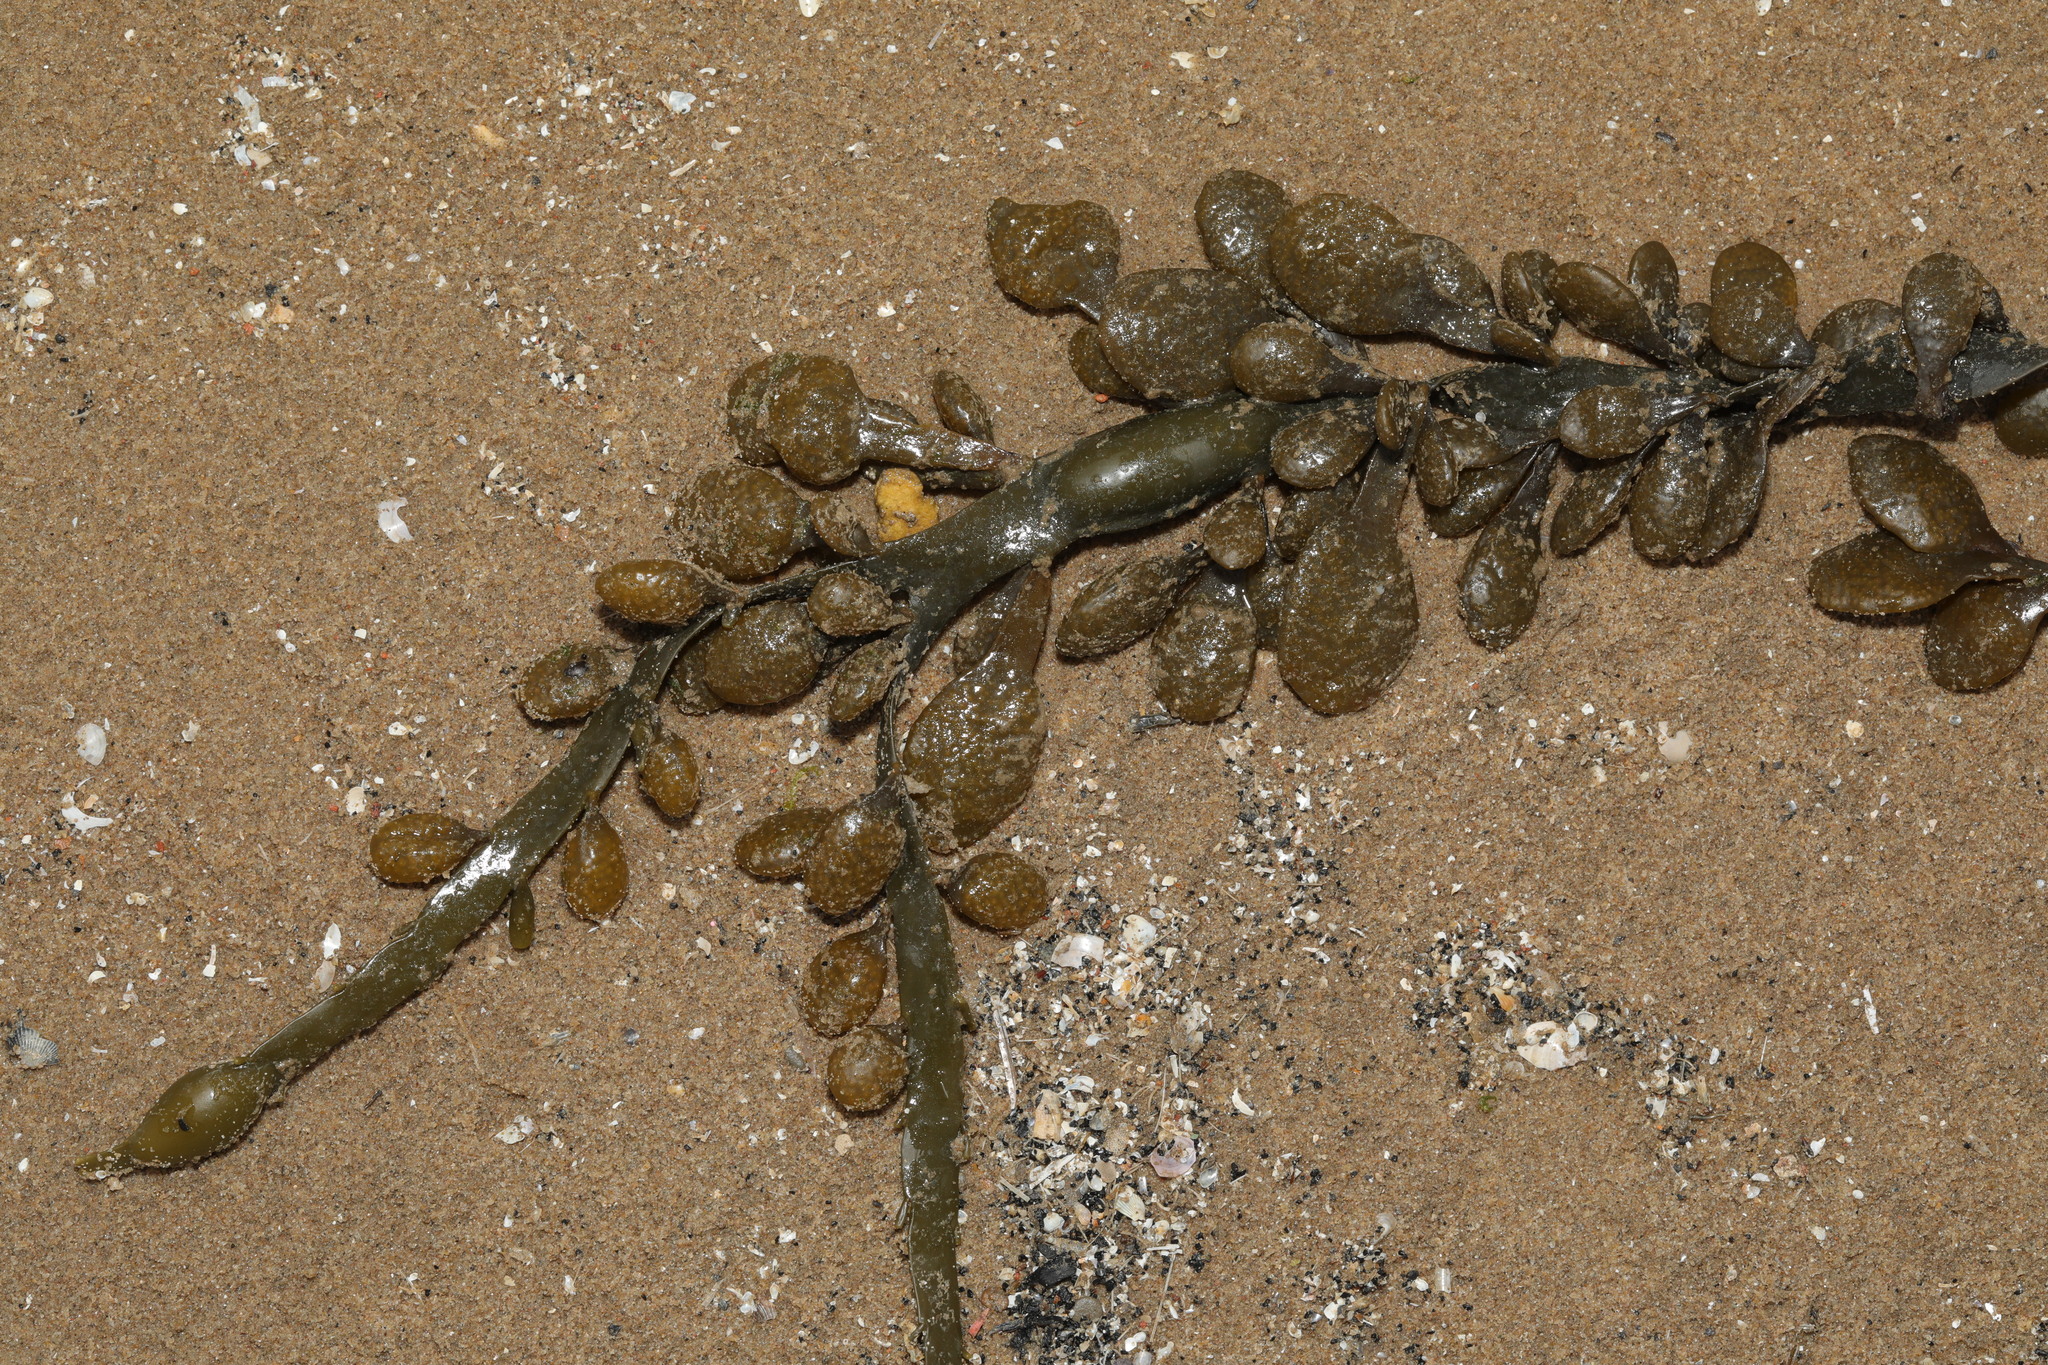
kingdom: Chromista
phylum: Ochrophyta
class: Phaeophyceae
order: Fucales
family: Fucaceae
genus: Ascophyllum
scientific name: Ascophyllum nodosum
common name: Knotted wrack
